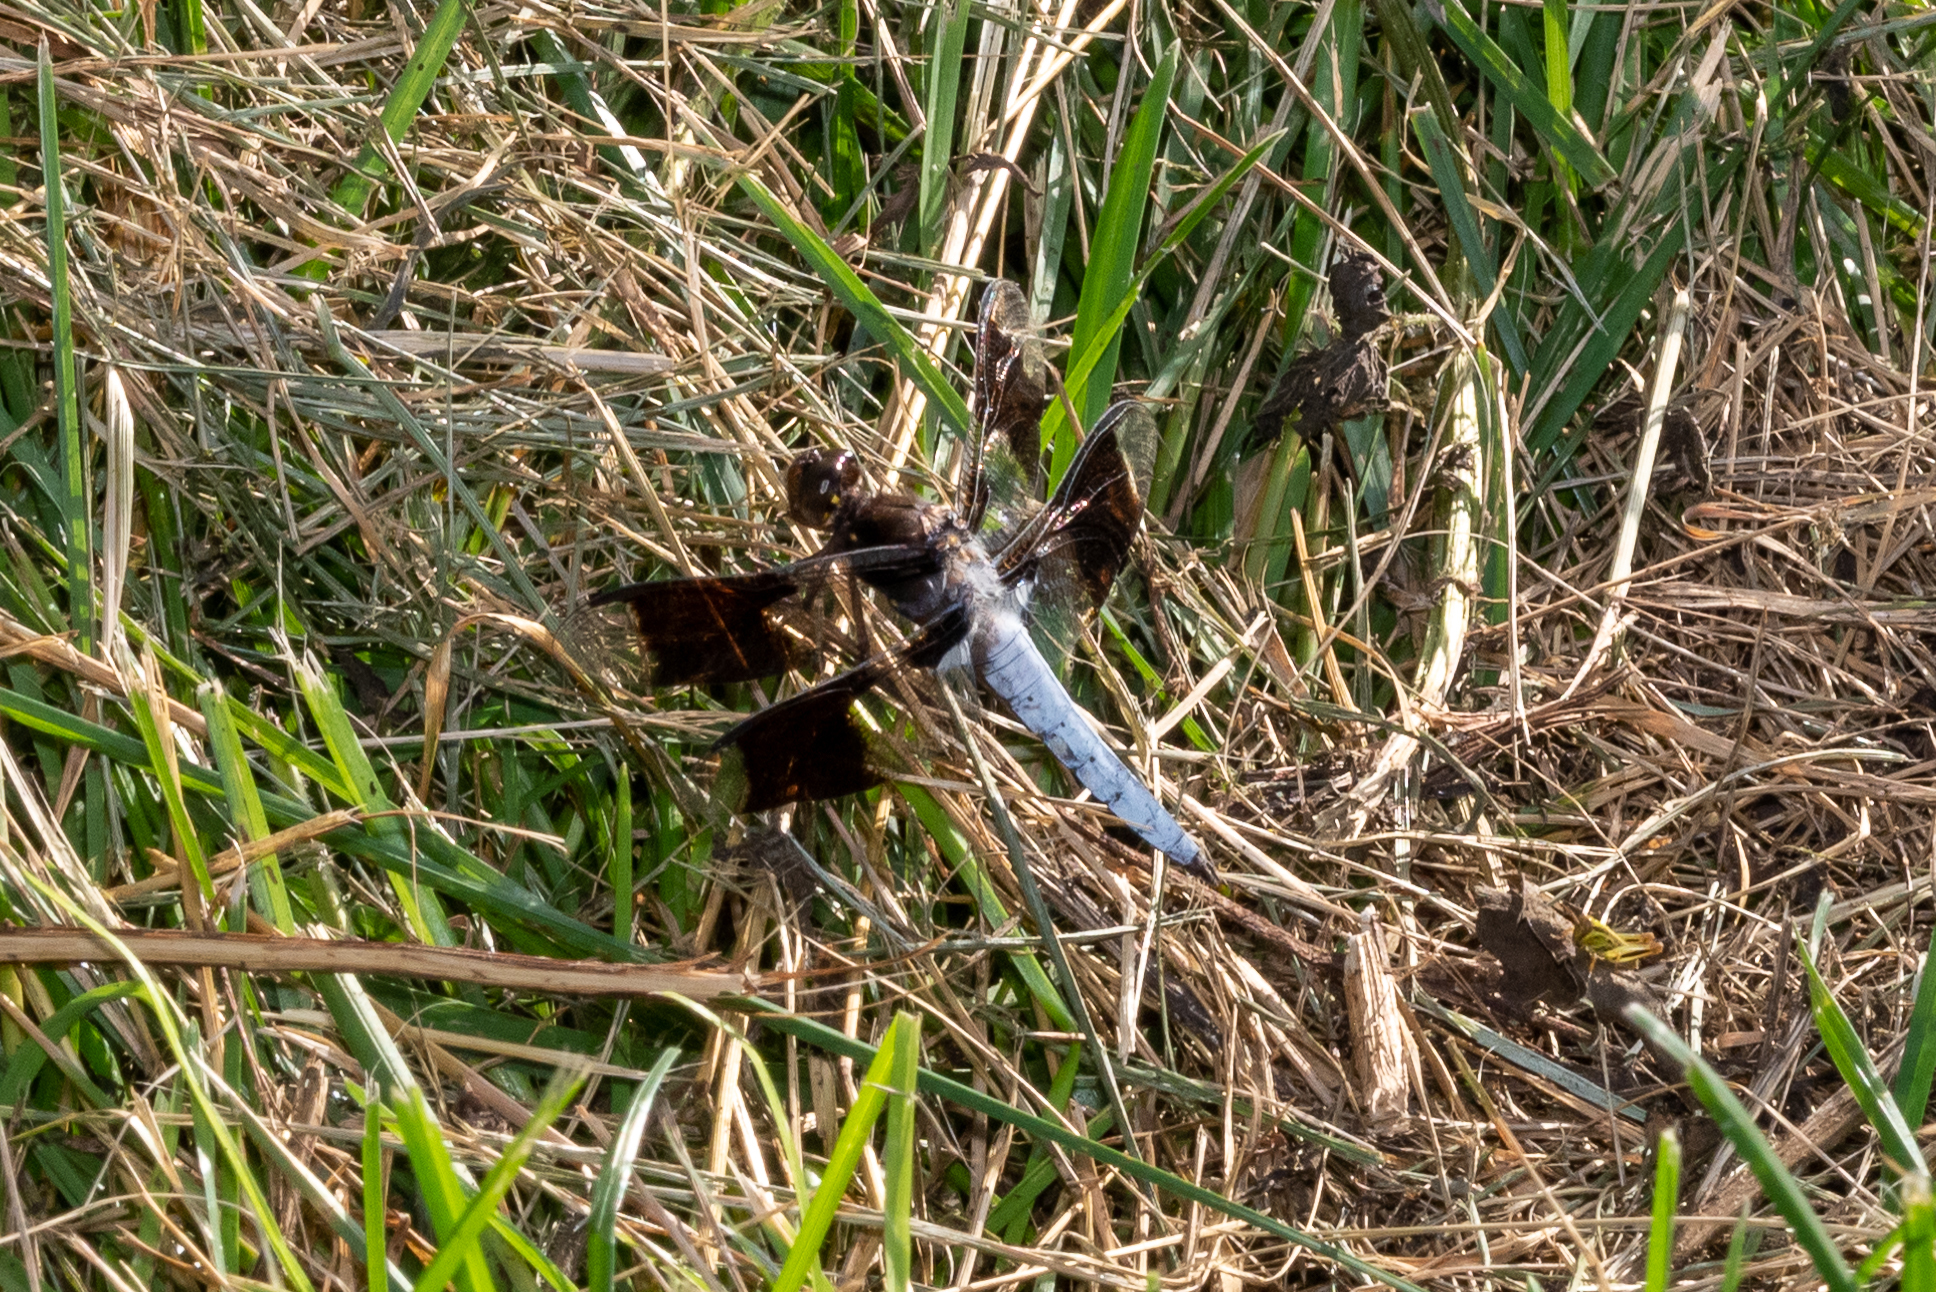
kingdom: Animalia
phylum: Arthropoda
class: Insecta
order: Odonata
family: Libellulidae
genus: Plathemis
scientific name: Plathemis lydia
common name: Common whitetail
